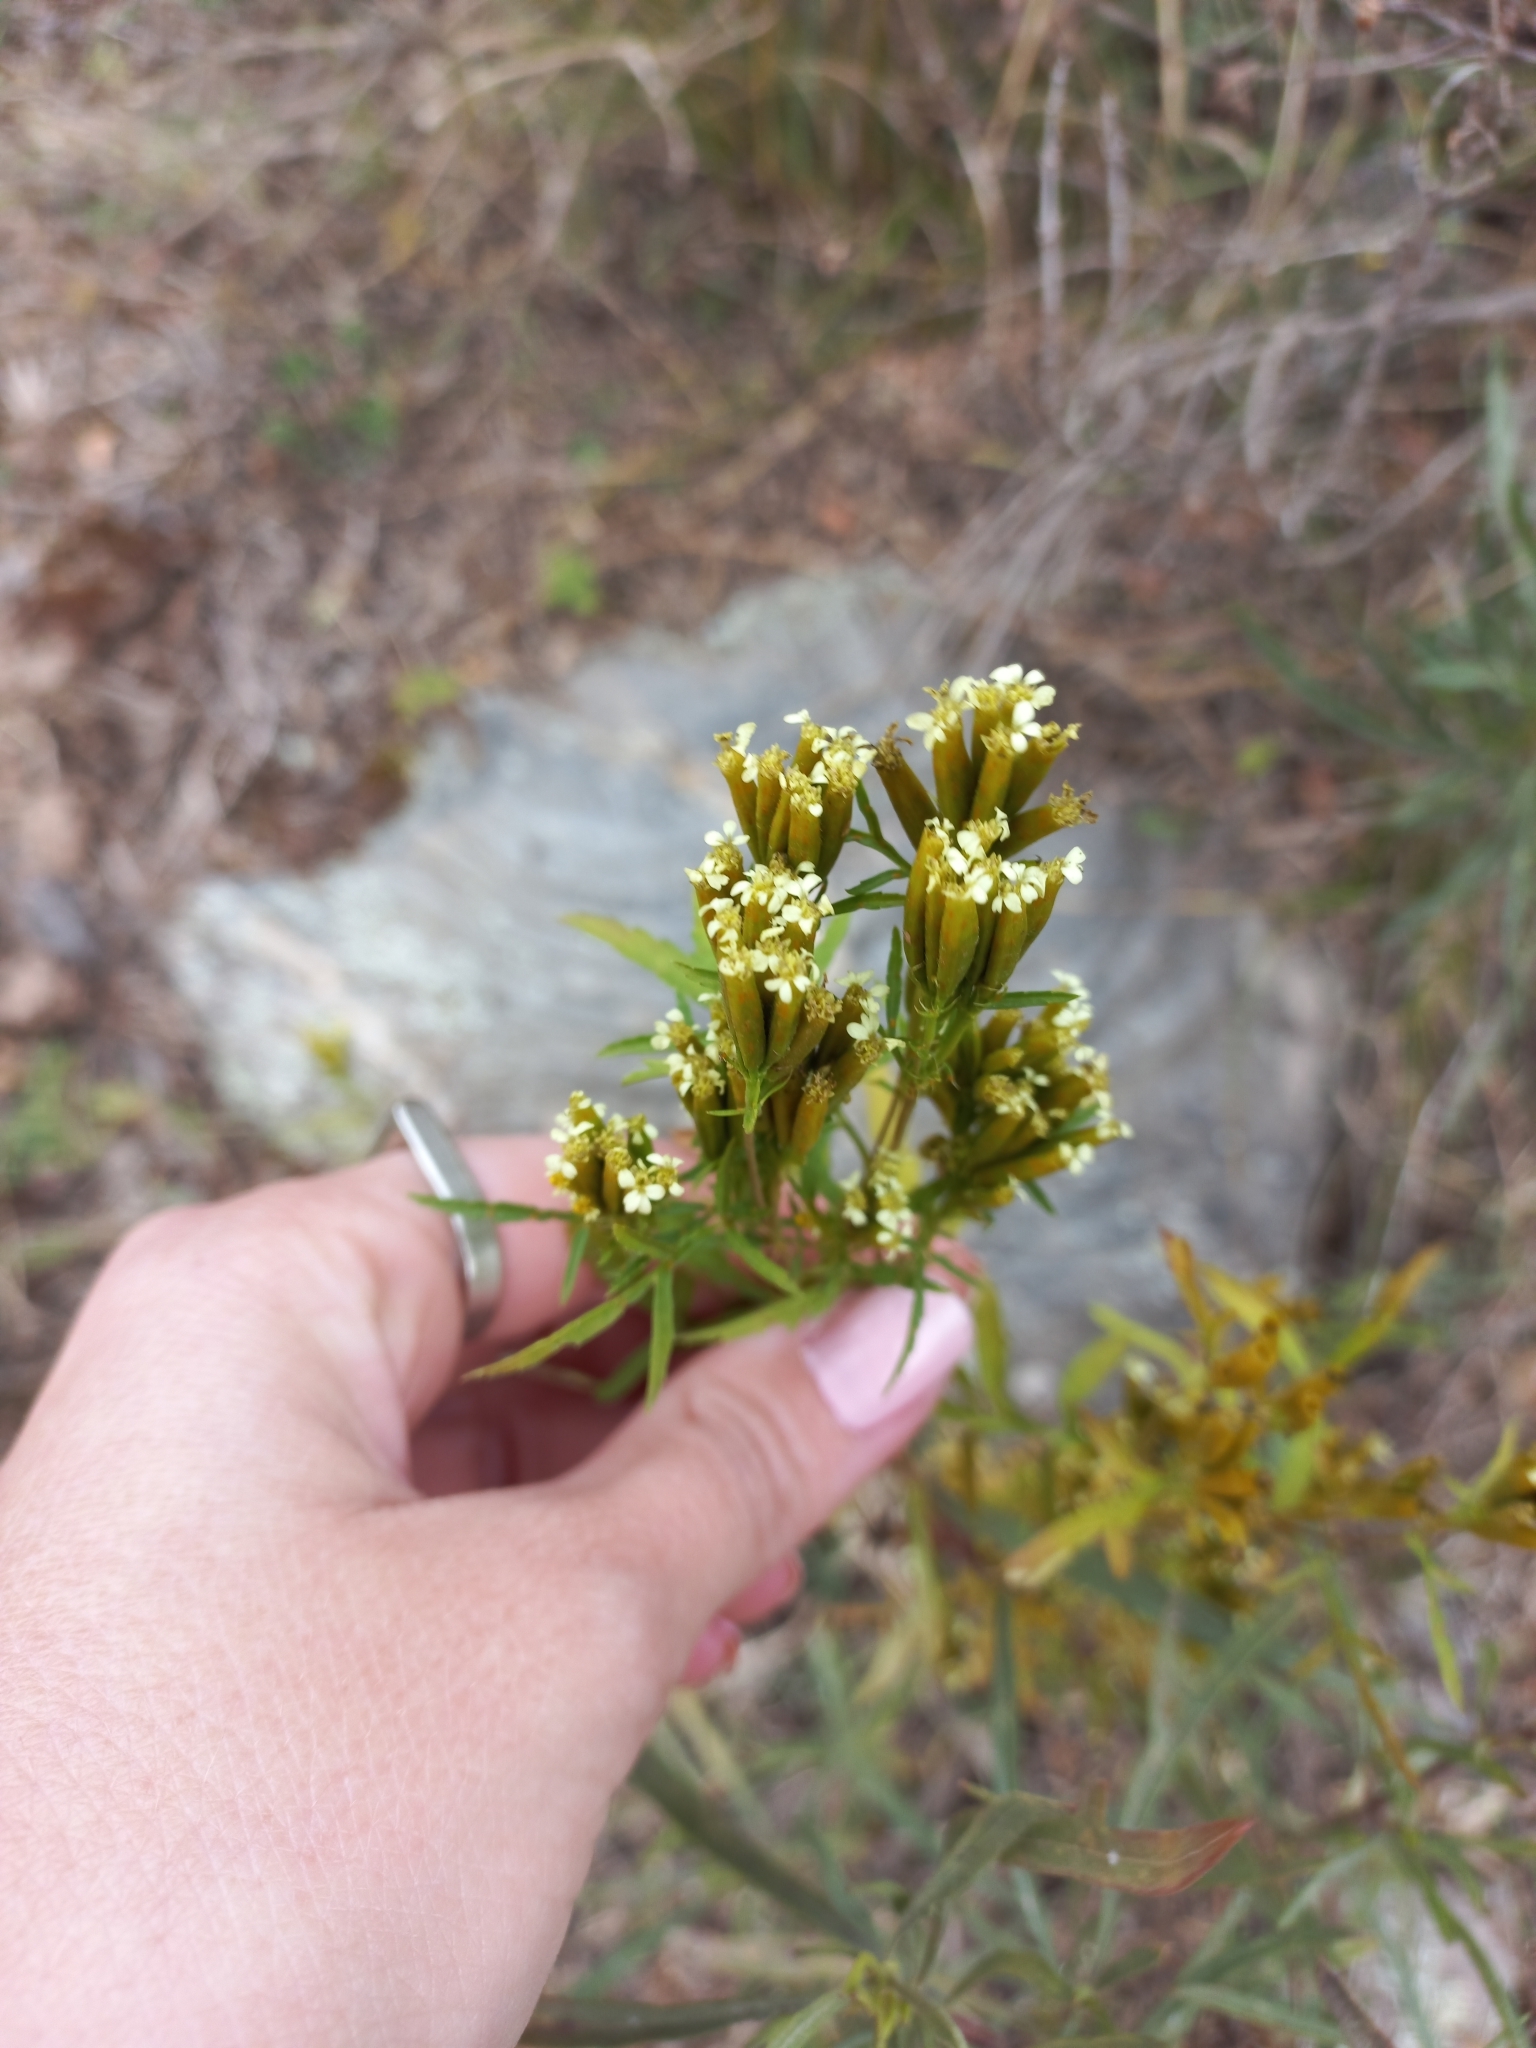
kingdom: Plantae
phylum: Tracheophyta
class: Magnoliopsida
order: Asterales
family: Asteraceae
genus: Tagetes
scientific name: Tagetes minuta
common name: Muster john henry
